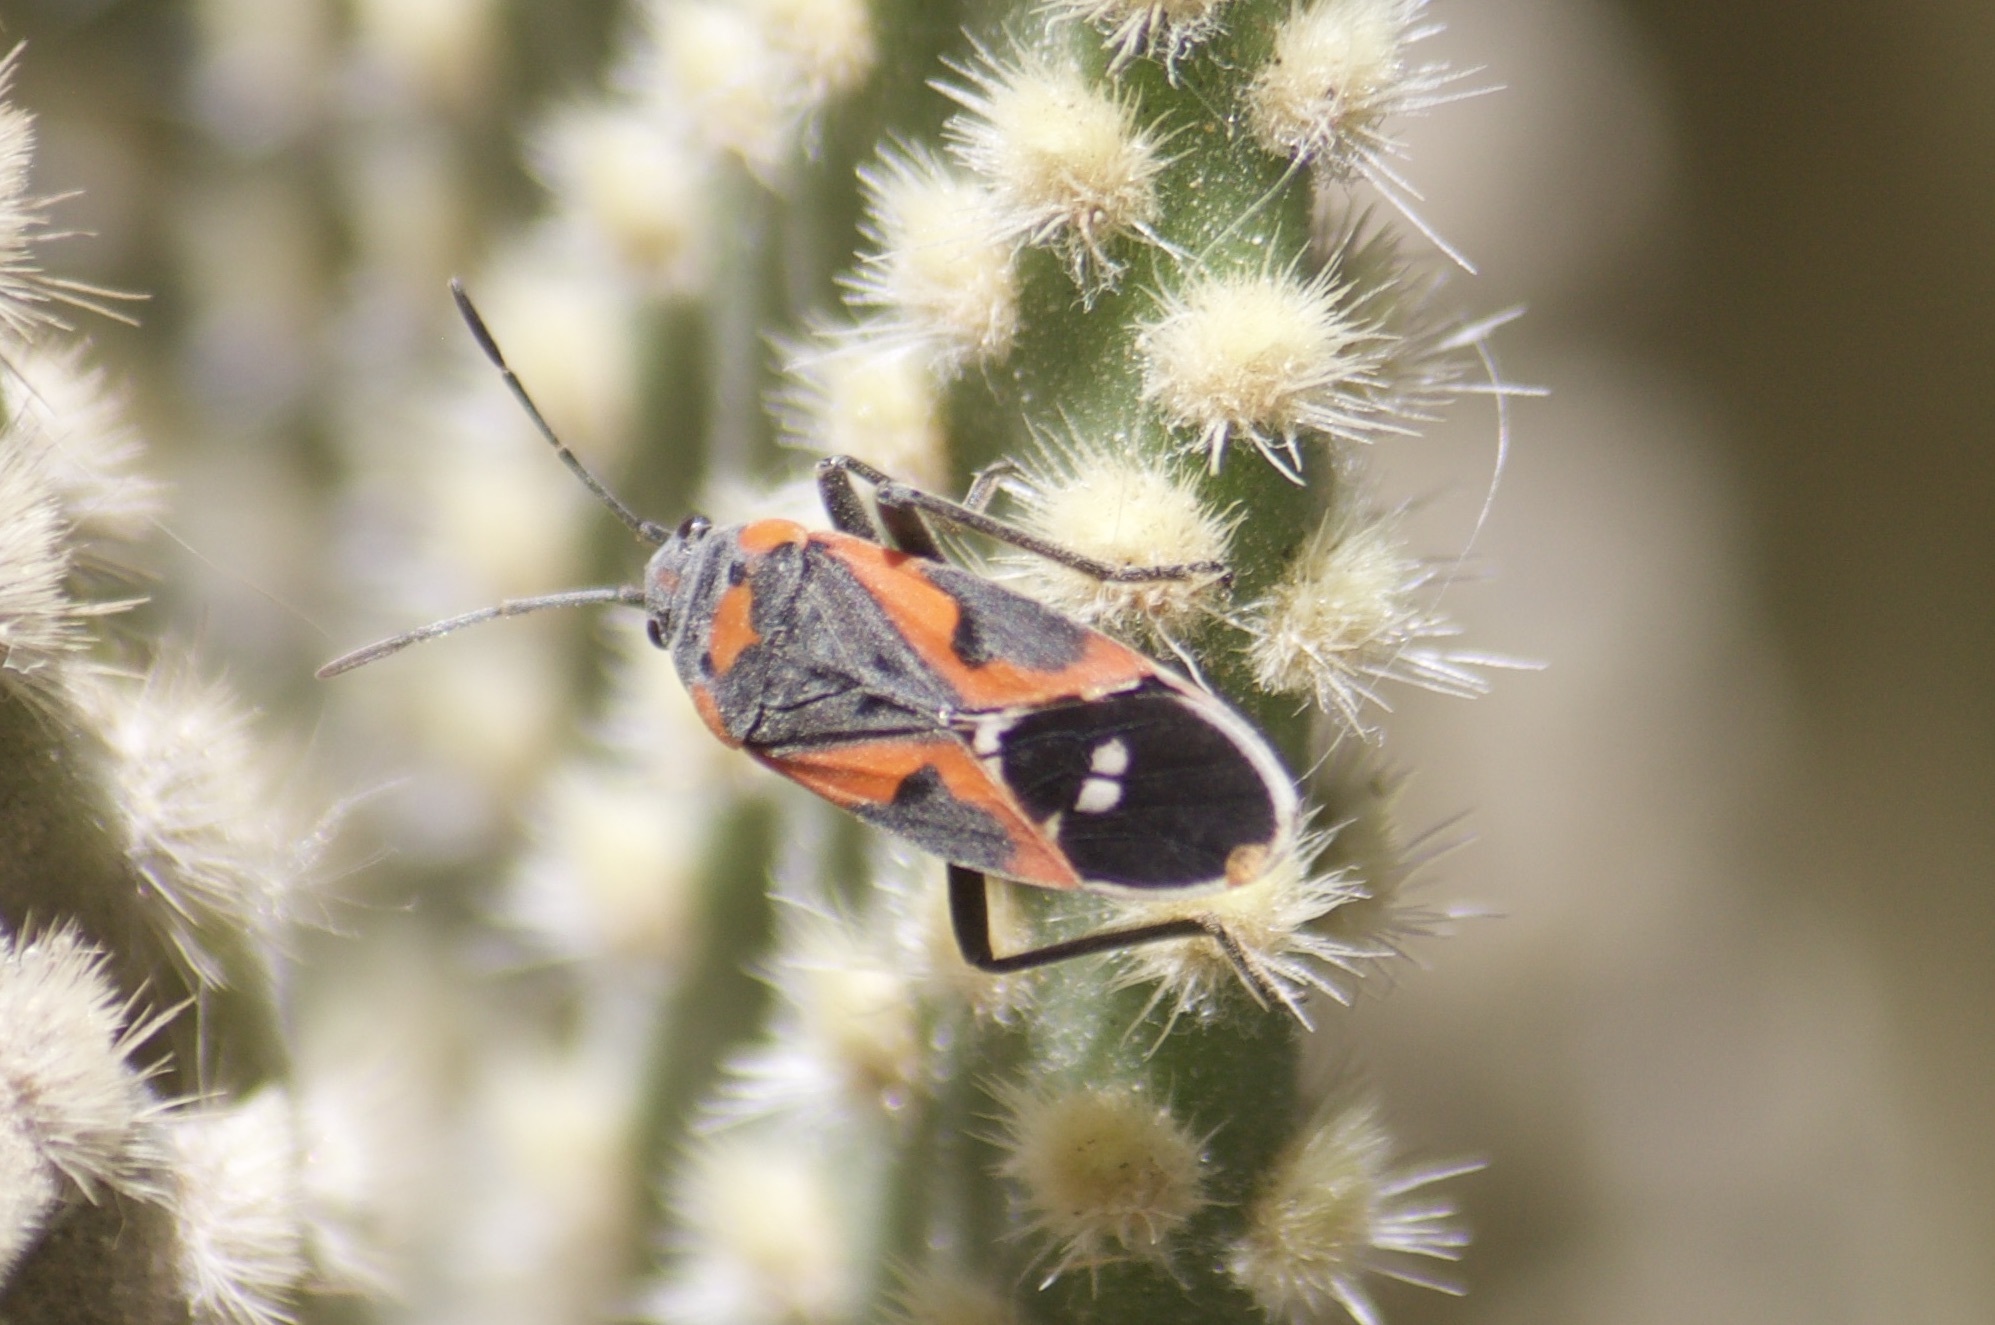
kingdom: Animalia
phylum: Arthropoda
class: Insecta
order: Hemiptera
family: Lygaeidae
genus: Lygaeus
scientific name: Lygaeus kalmii
